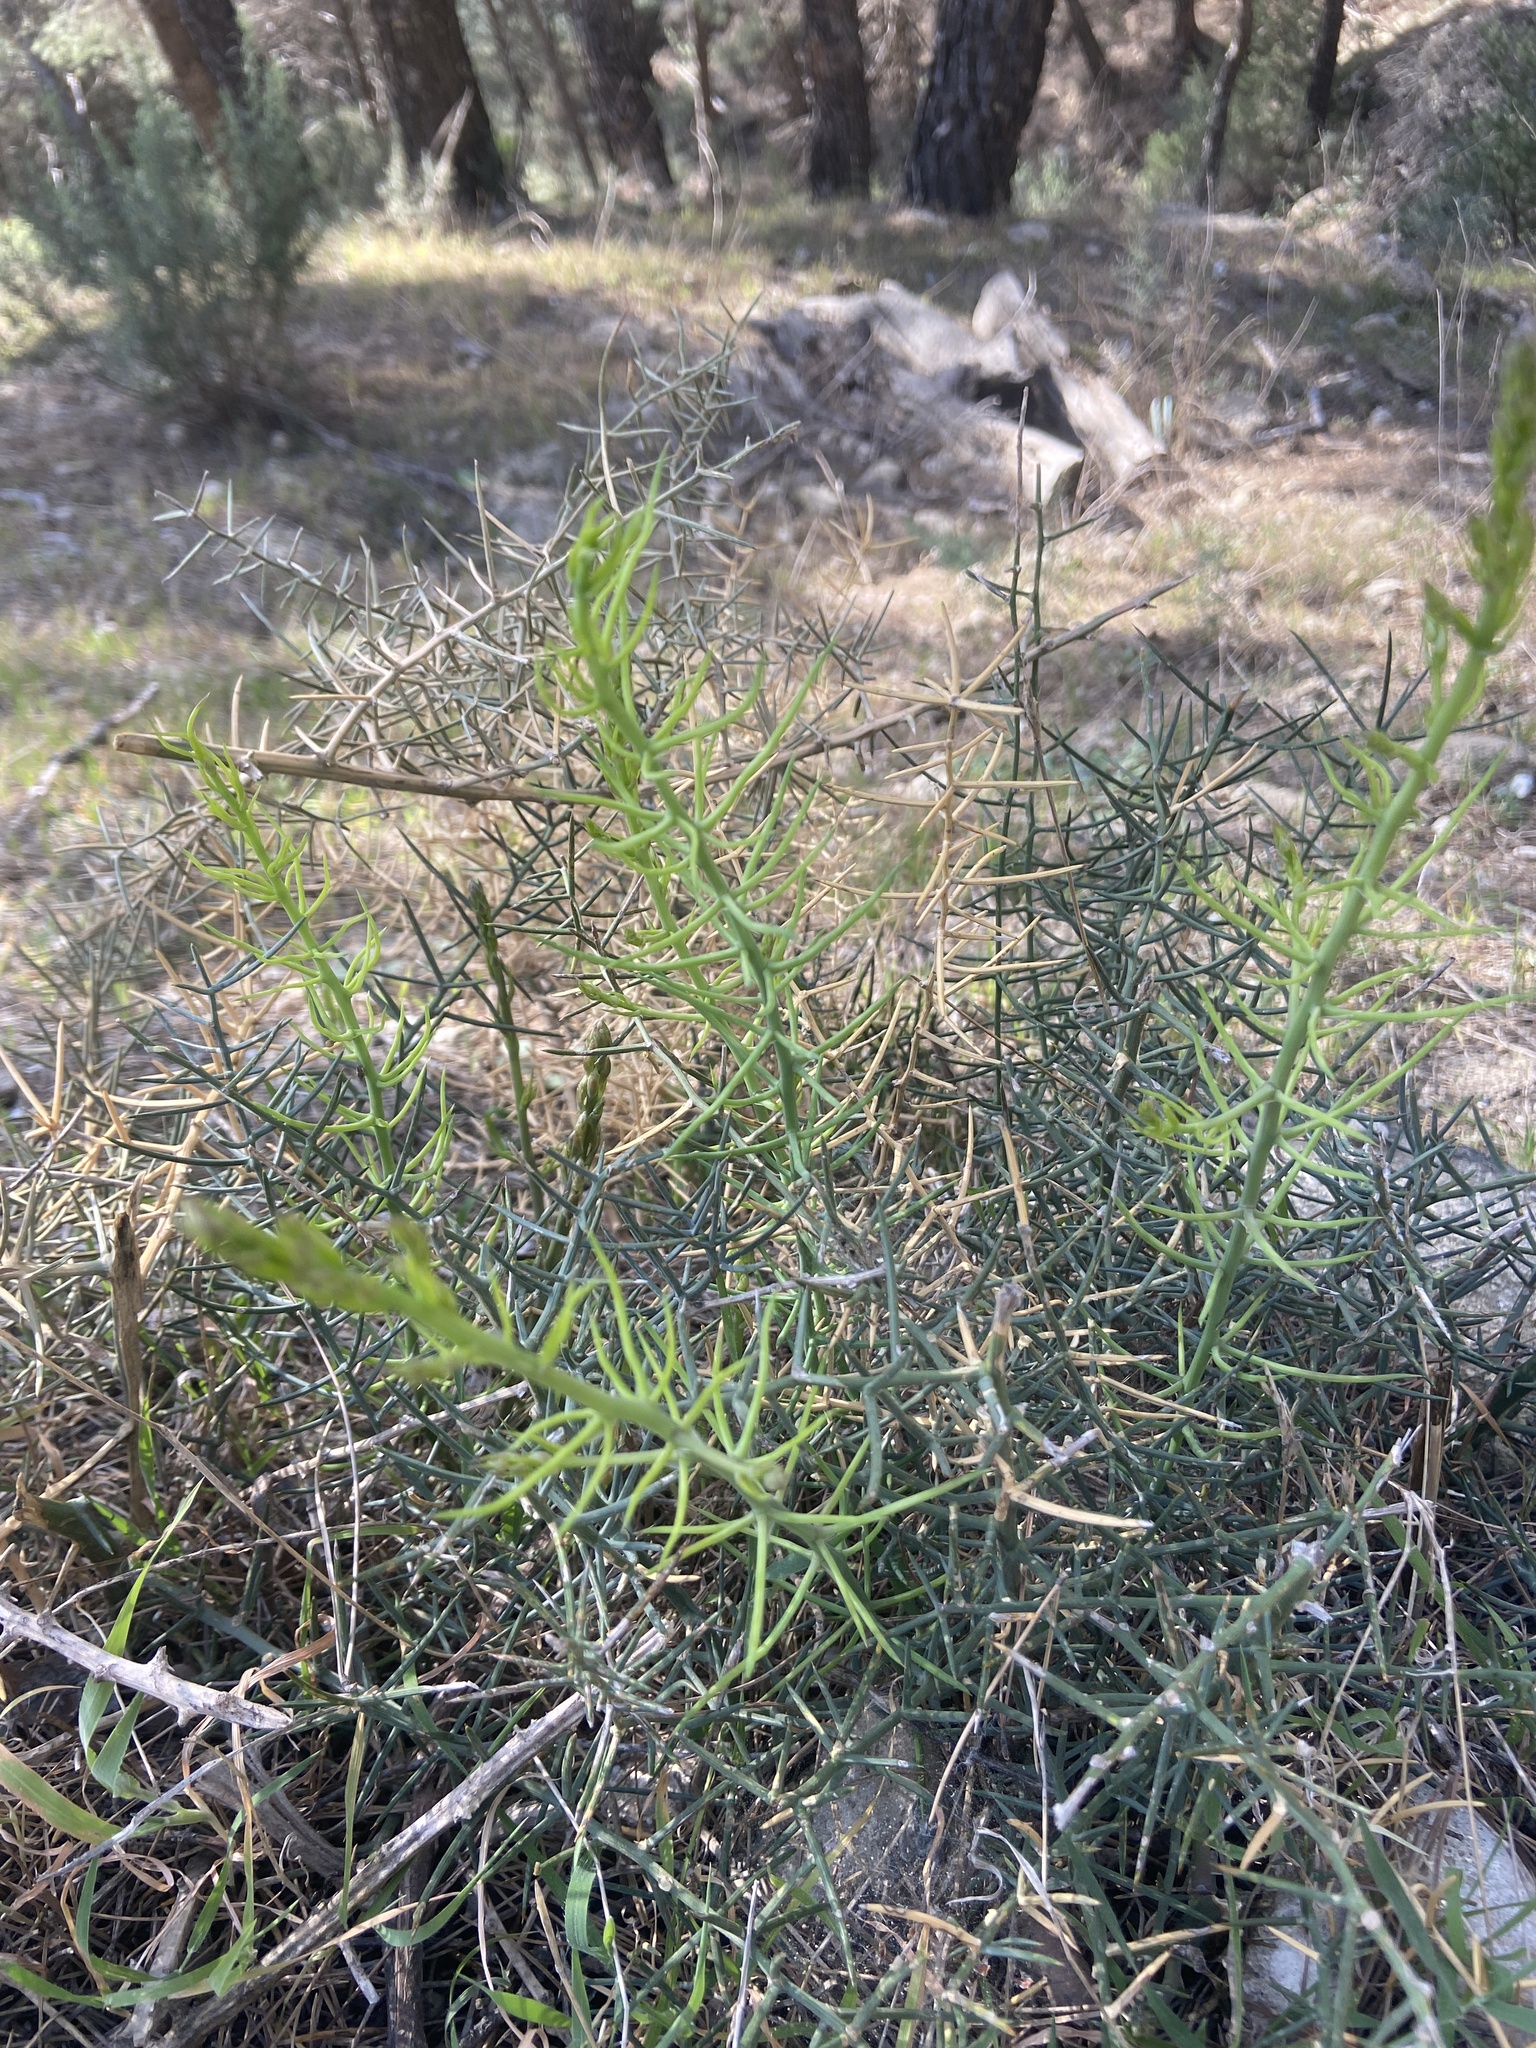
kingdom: Plantae
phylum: Tracheophyta
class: Liliopsida
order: Asparagales
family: Asparagaceae
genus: Asparagus
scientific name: Asparagus horridus
